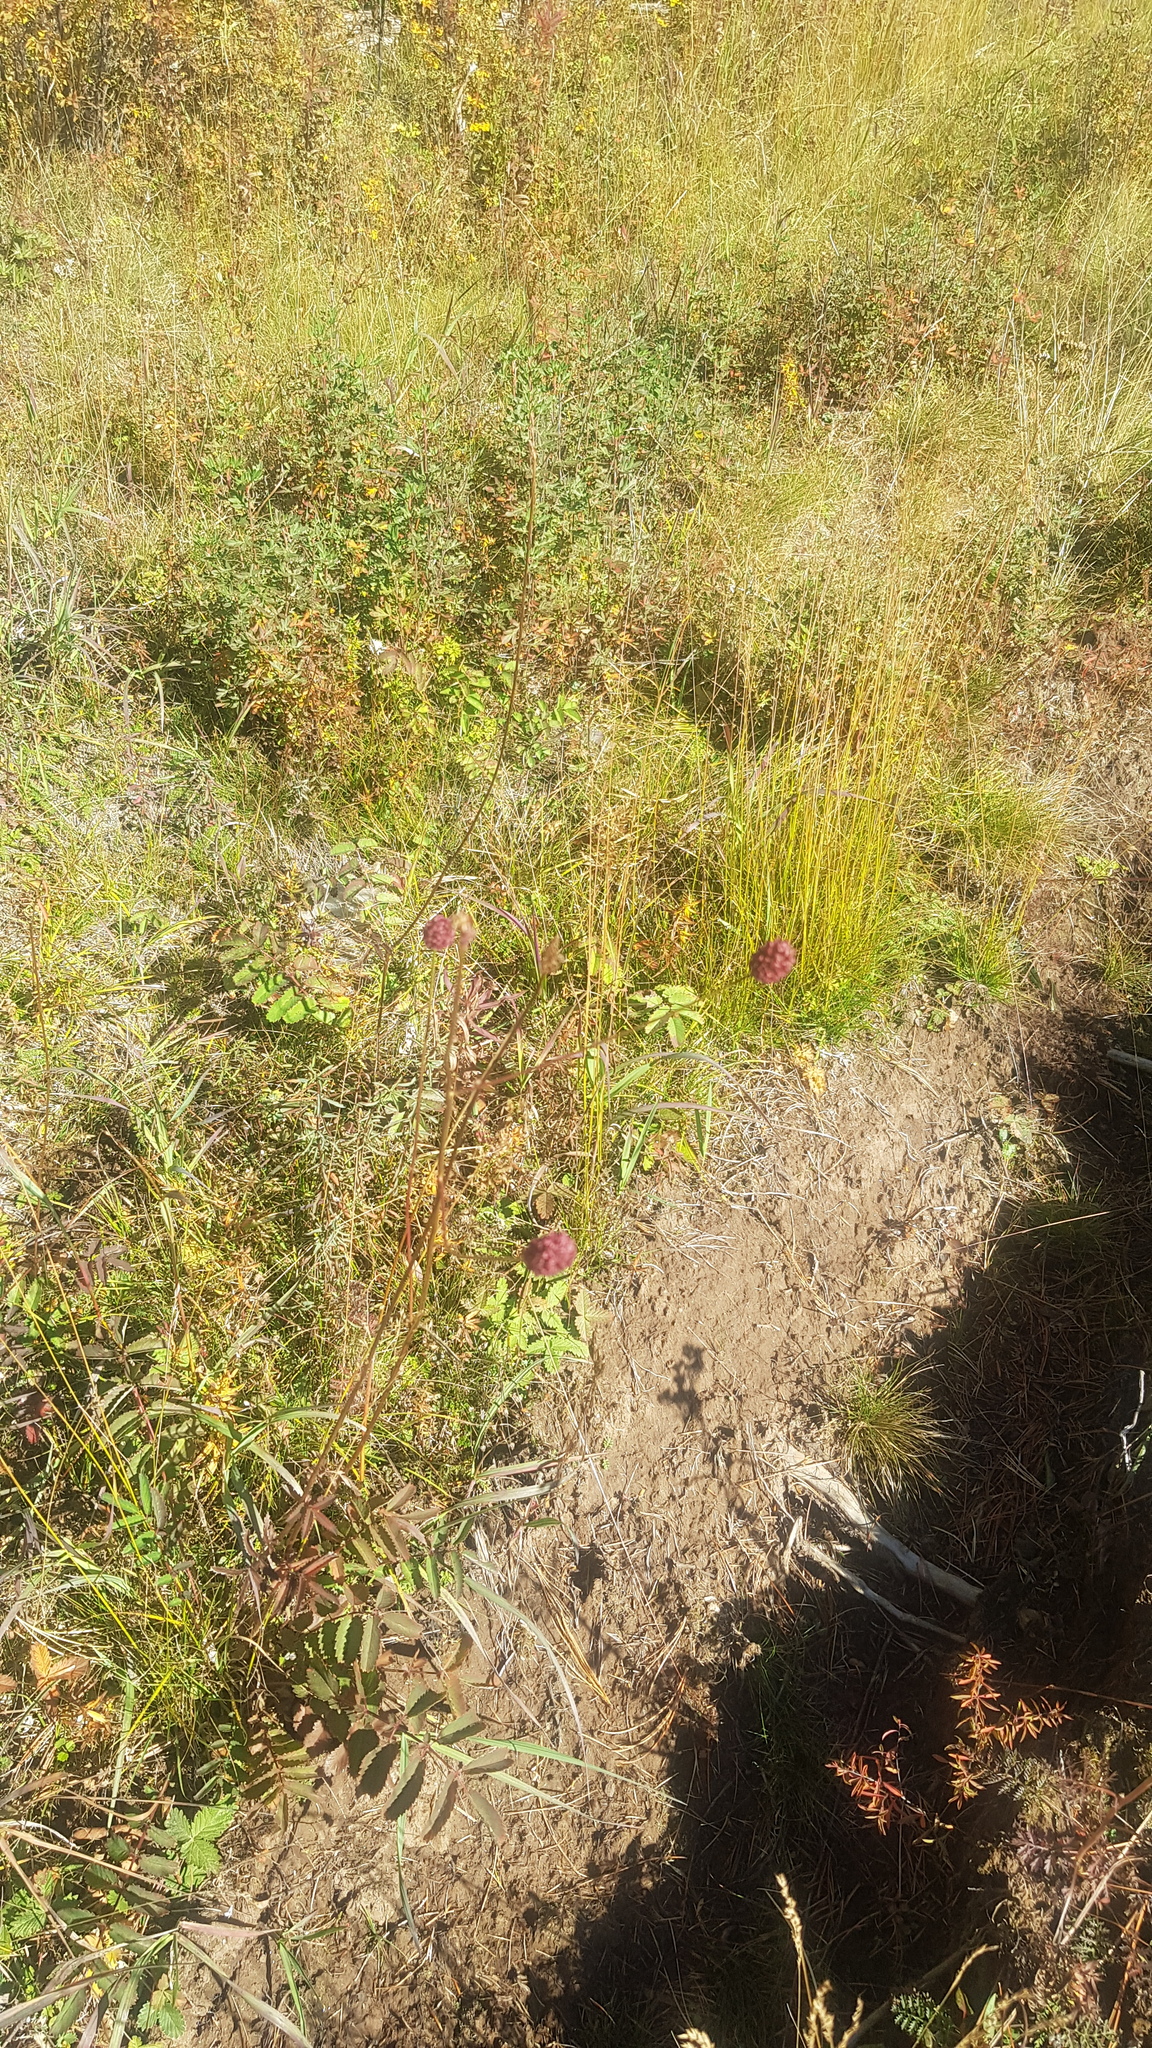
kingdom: Plantae
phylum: Tracheophyta
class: Magnoliopsida
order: Rosales
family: Rosaceae
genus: Sanguisorba
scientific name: Sanguisorba officinalis
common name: Great burnet
